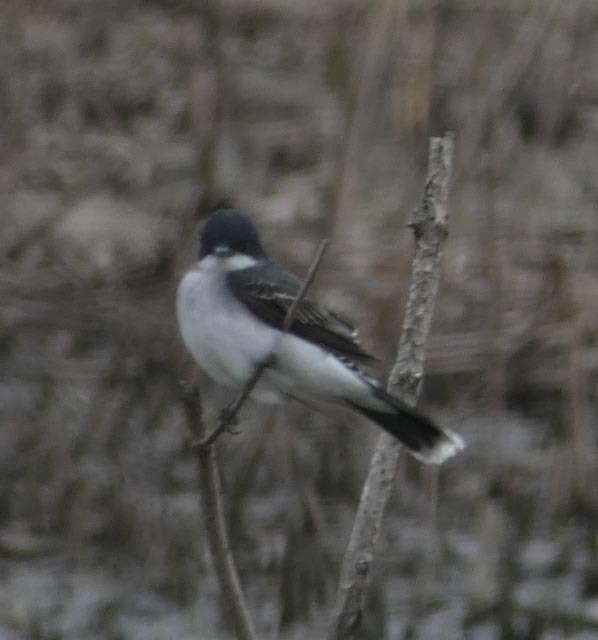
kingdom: Animalia
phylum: Chordata
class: Aves
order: Passeriformes
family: Tyrannidae
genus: Tyrannus
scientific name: Tyrannus tyrannus
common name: Eastern kingbird
